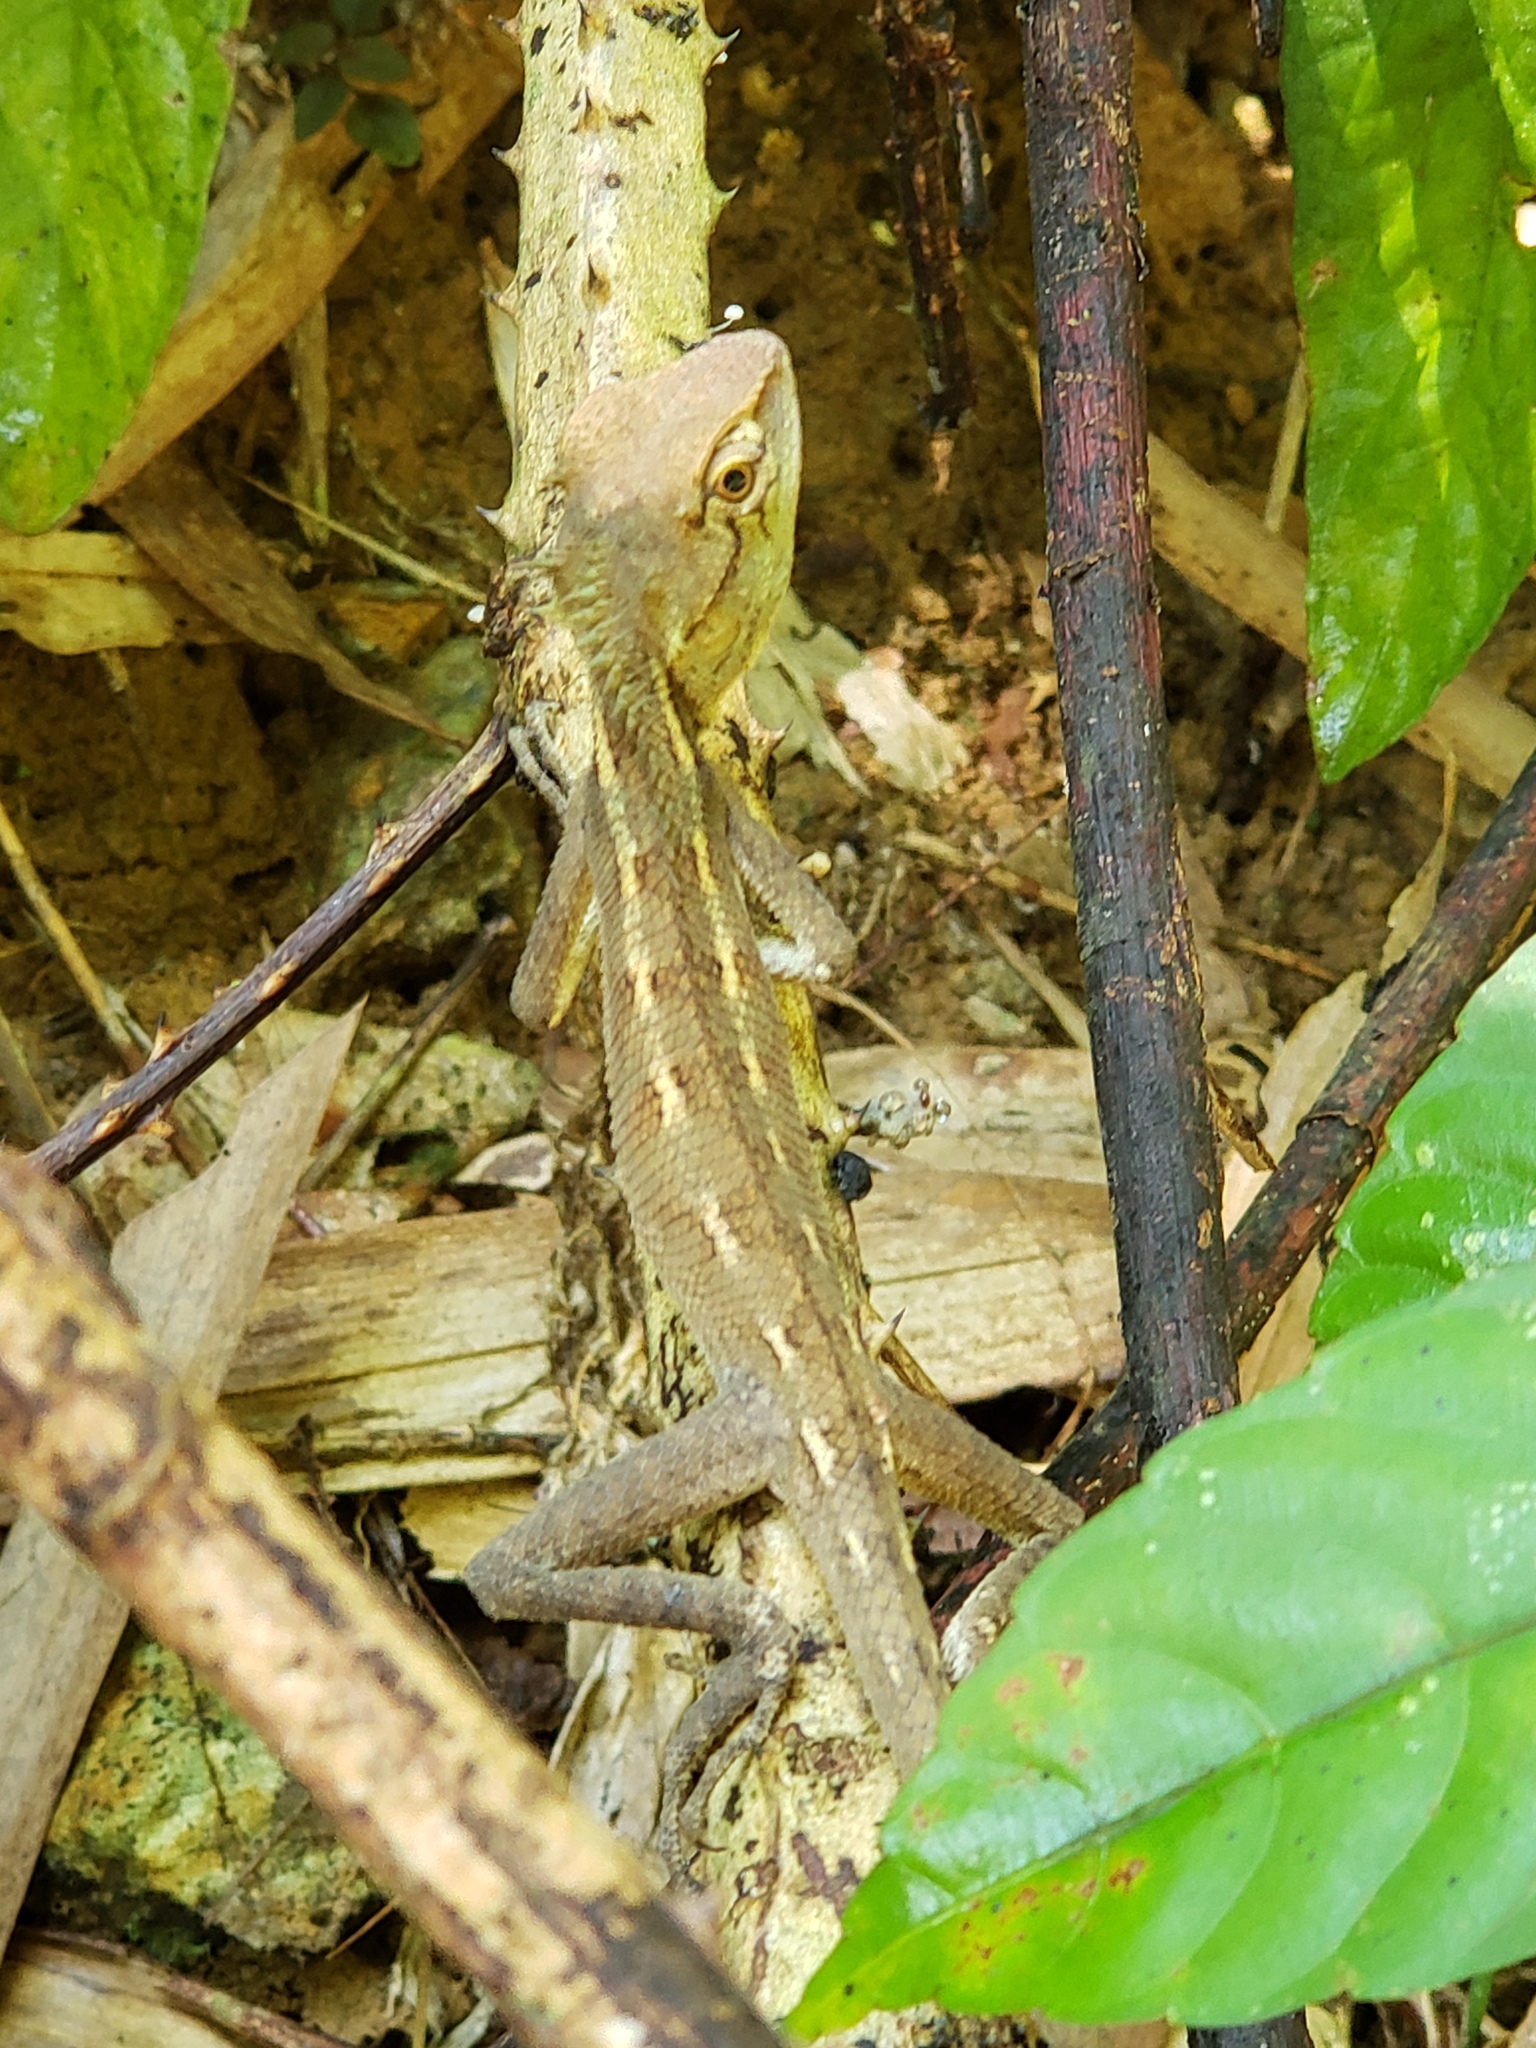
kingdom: Animalia
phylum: Chordata
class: Squamata
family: Agamidae
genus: Calotes
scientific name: Calotes emma
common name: Thailand bloodsucker
